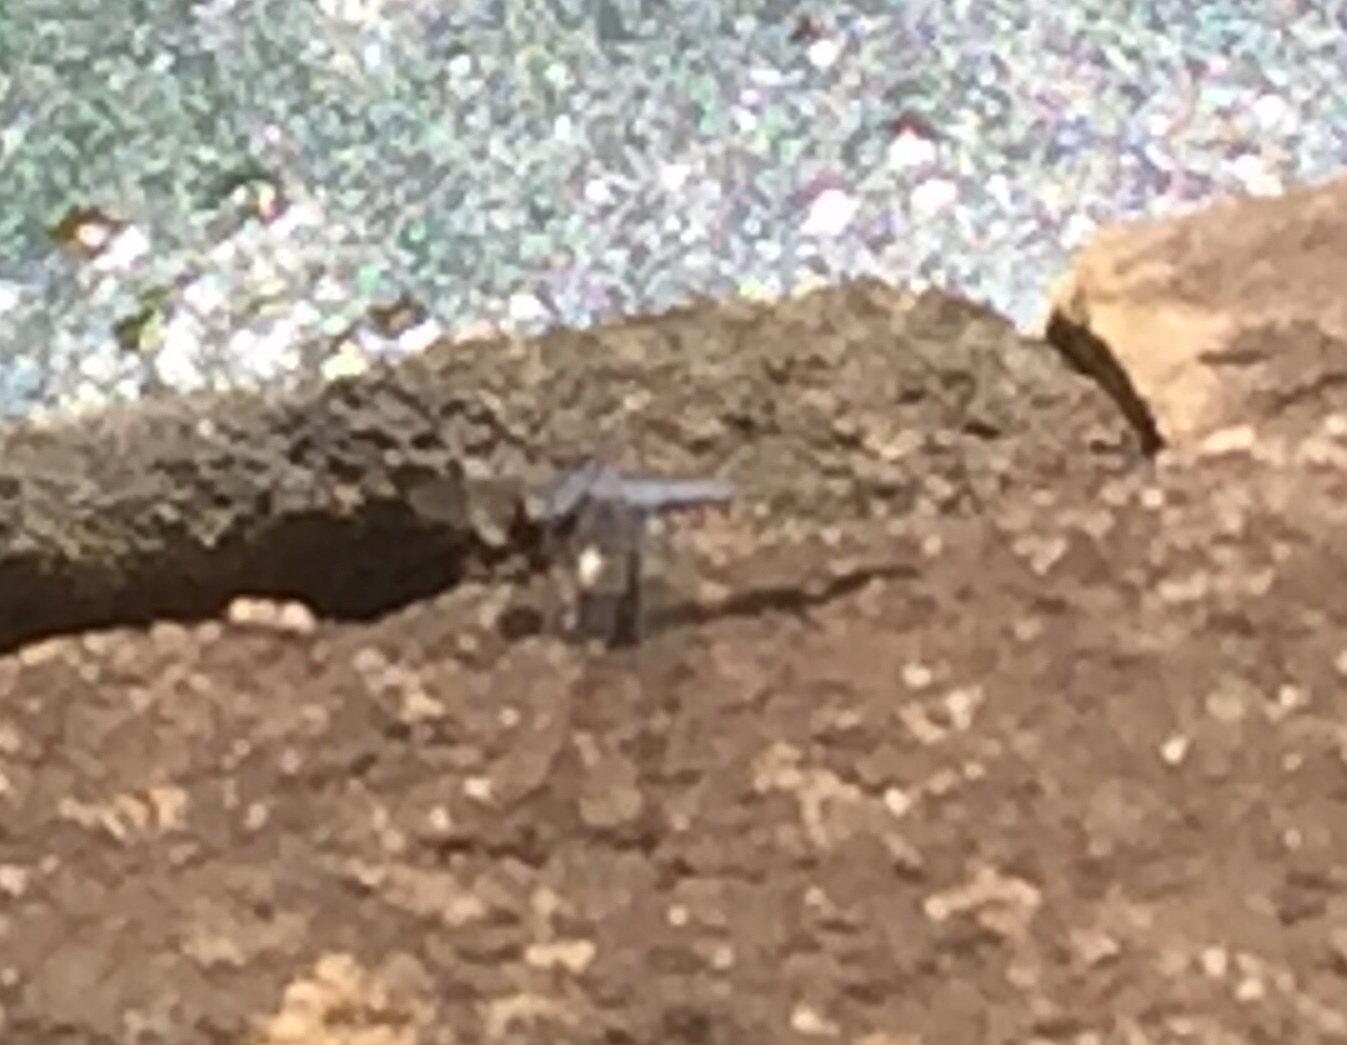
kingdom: Animalia
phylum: Arthropoda
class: Insecta
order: Odonata
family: Libellulidae
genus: Orthetrum
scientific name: Orthetrum glaucum
